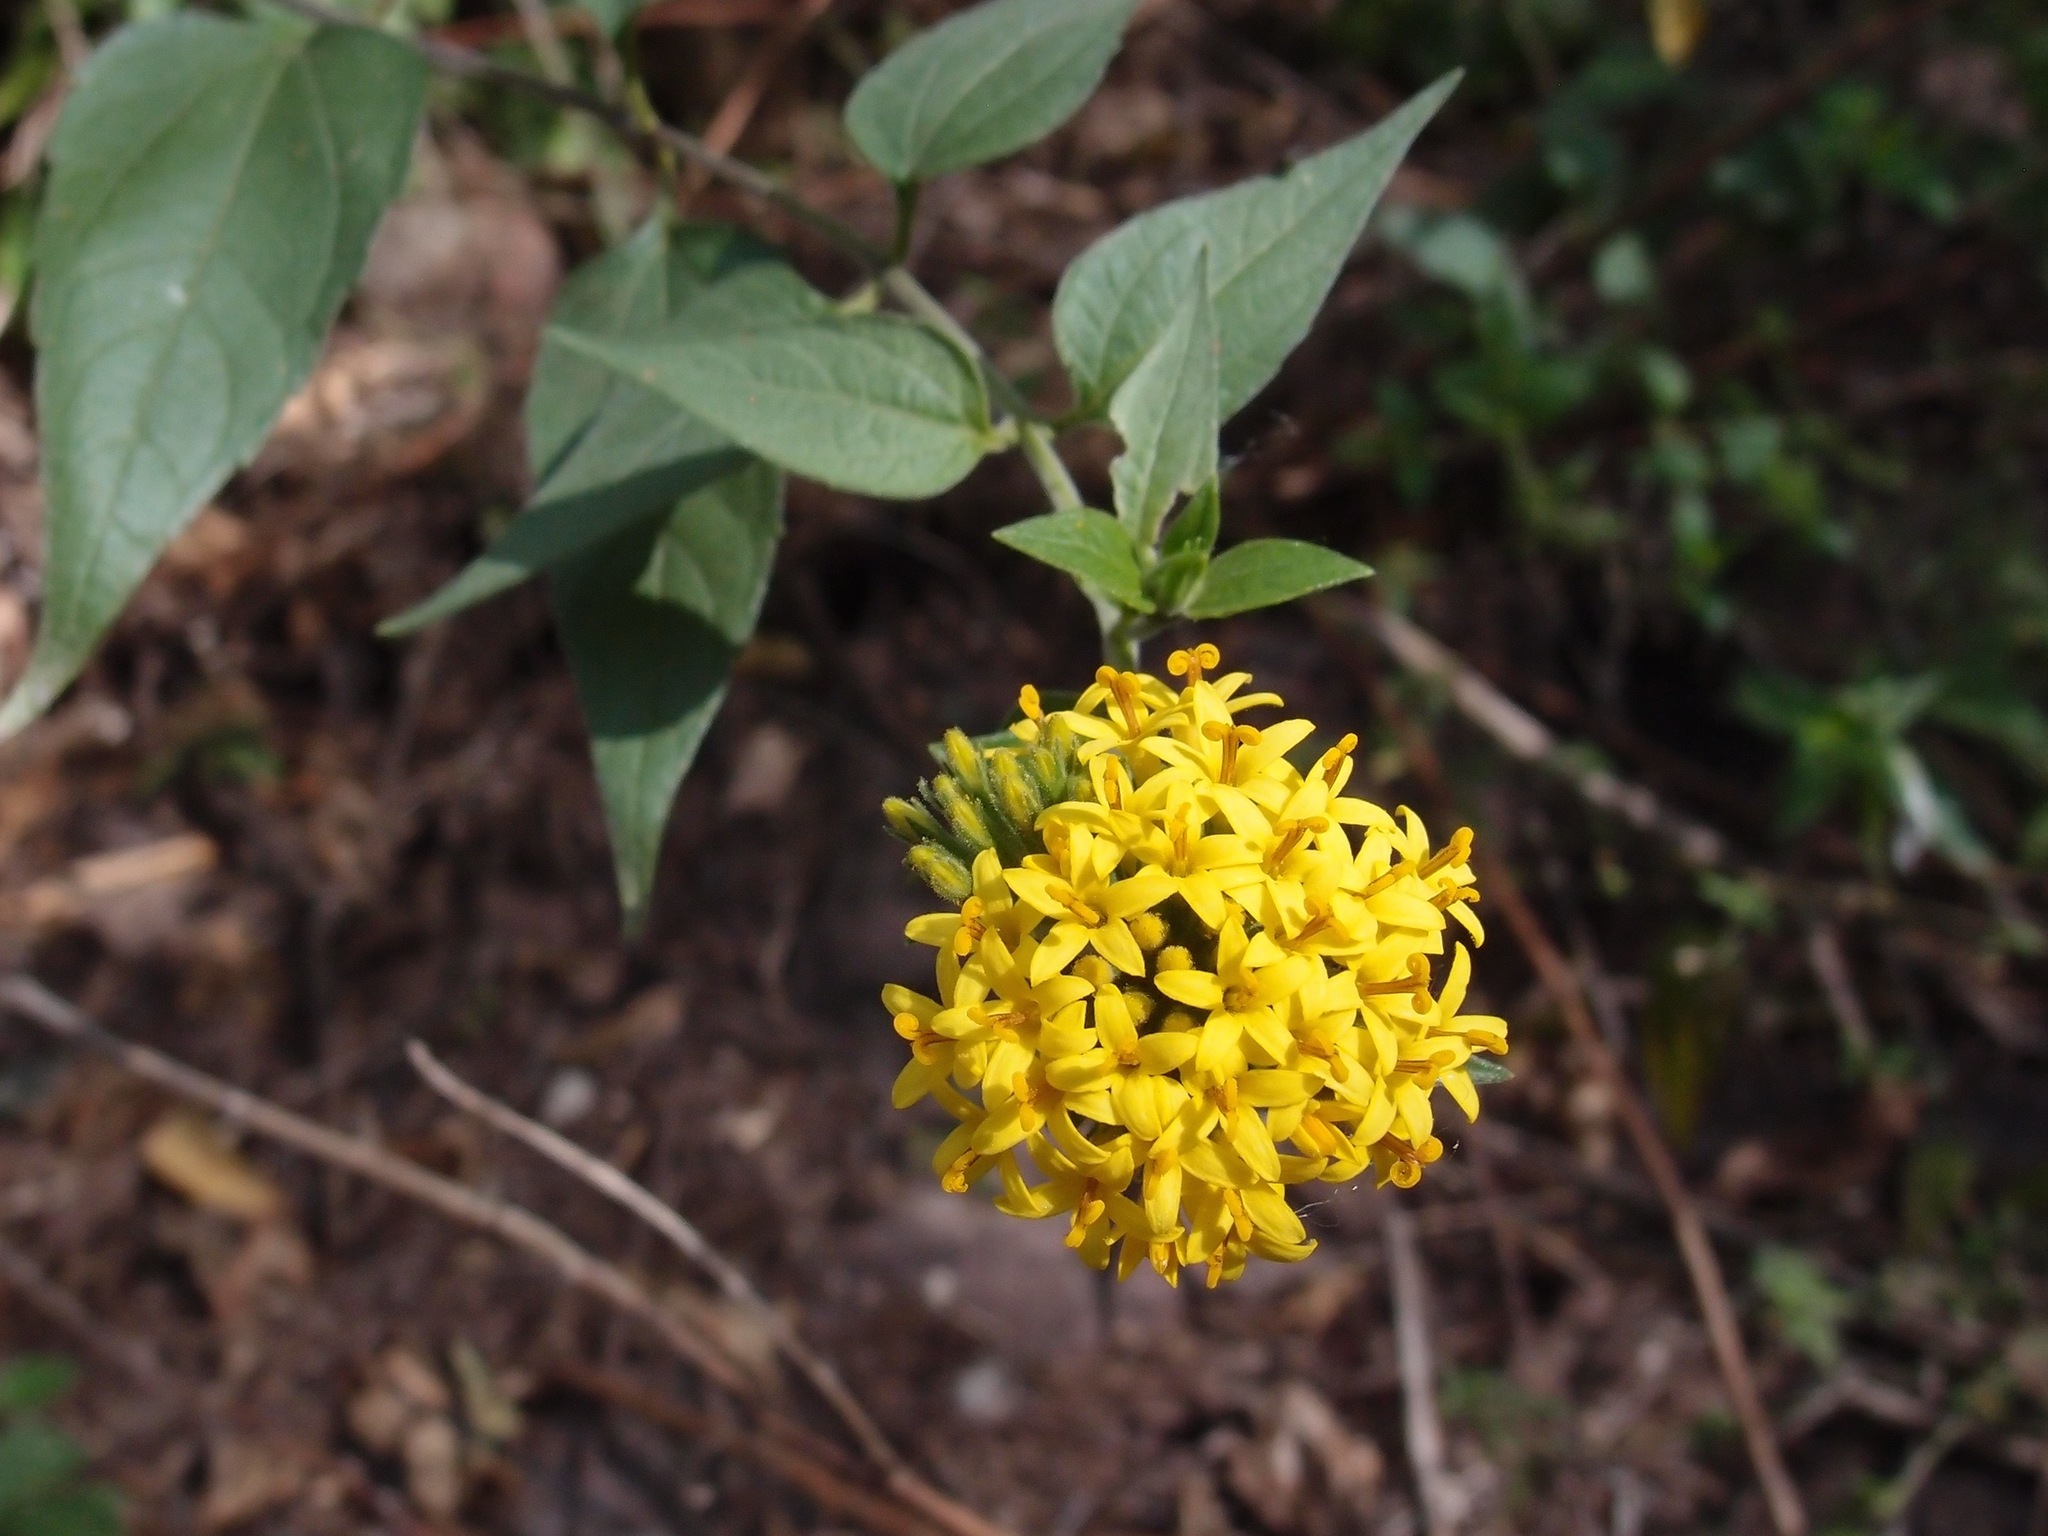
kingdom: Plantae
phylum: Tracheophyta
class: Magnoliopsida
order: Asterales
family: Asteraceae
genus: Lagascea
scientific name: Lagascea decipiens
